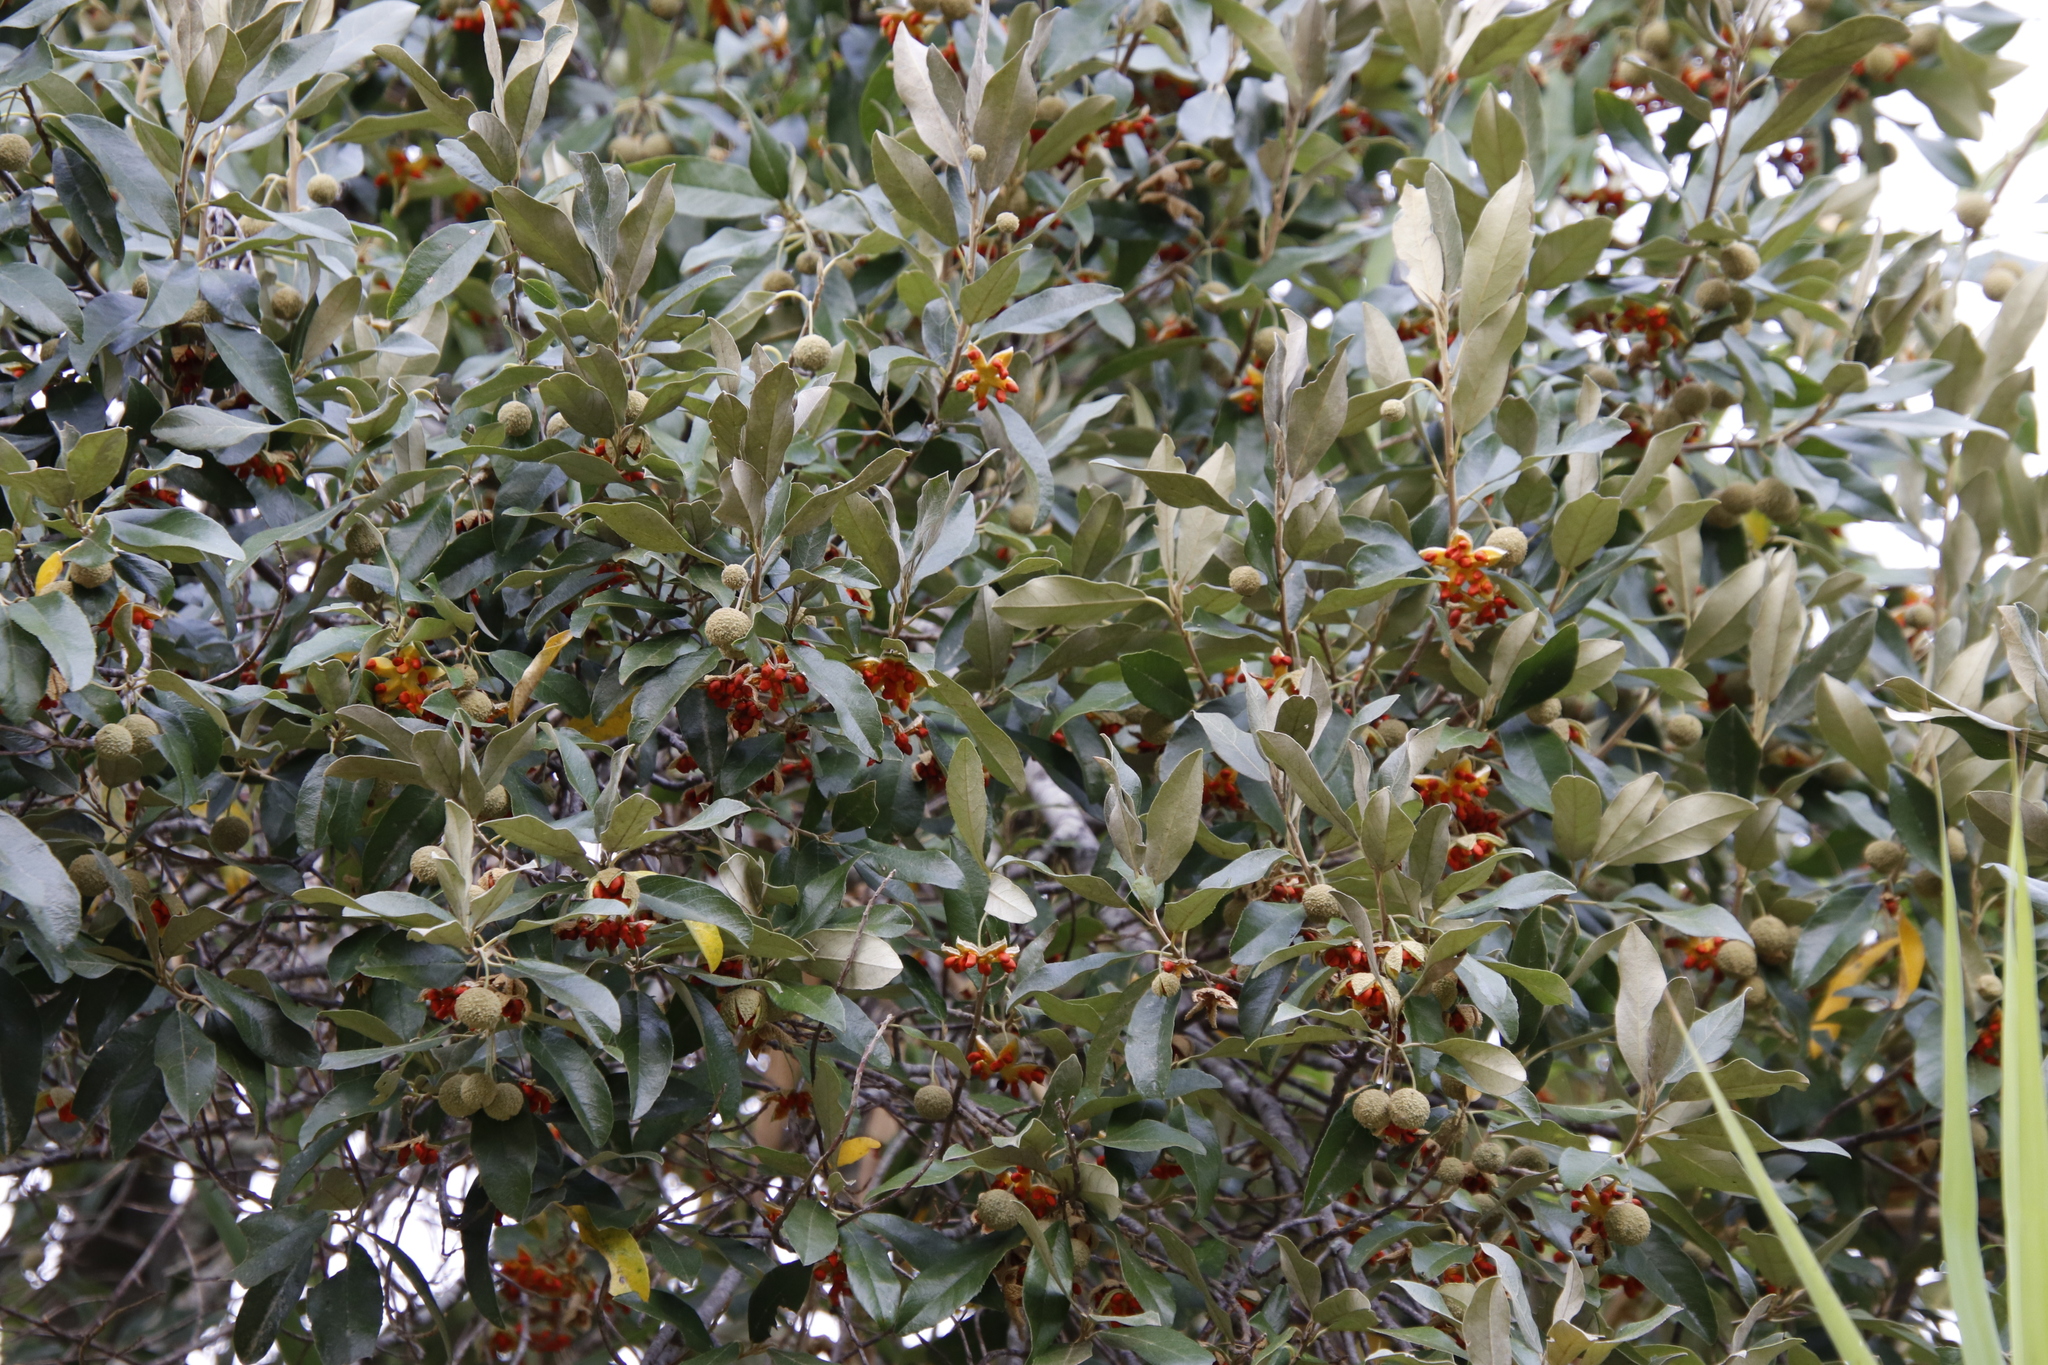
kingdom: Plantae
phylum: Tracheophyta
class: Magnoliopsida
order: Malpighiales
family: Achariaceae
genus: Kiggelaria
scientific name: Kiggelaria africana
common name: Wild peach
